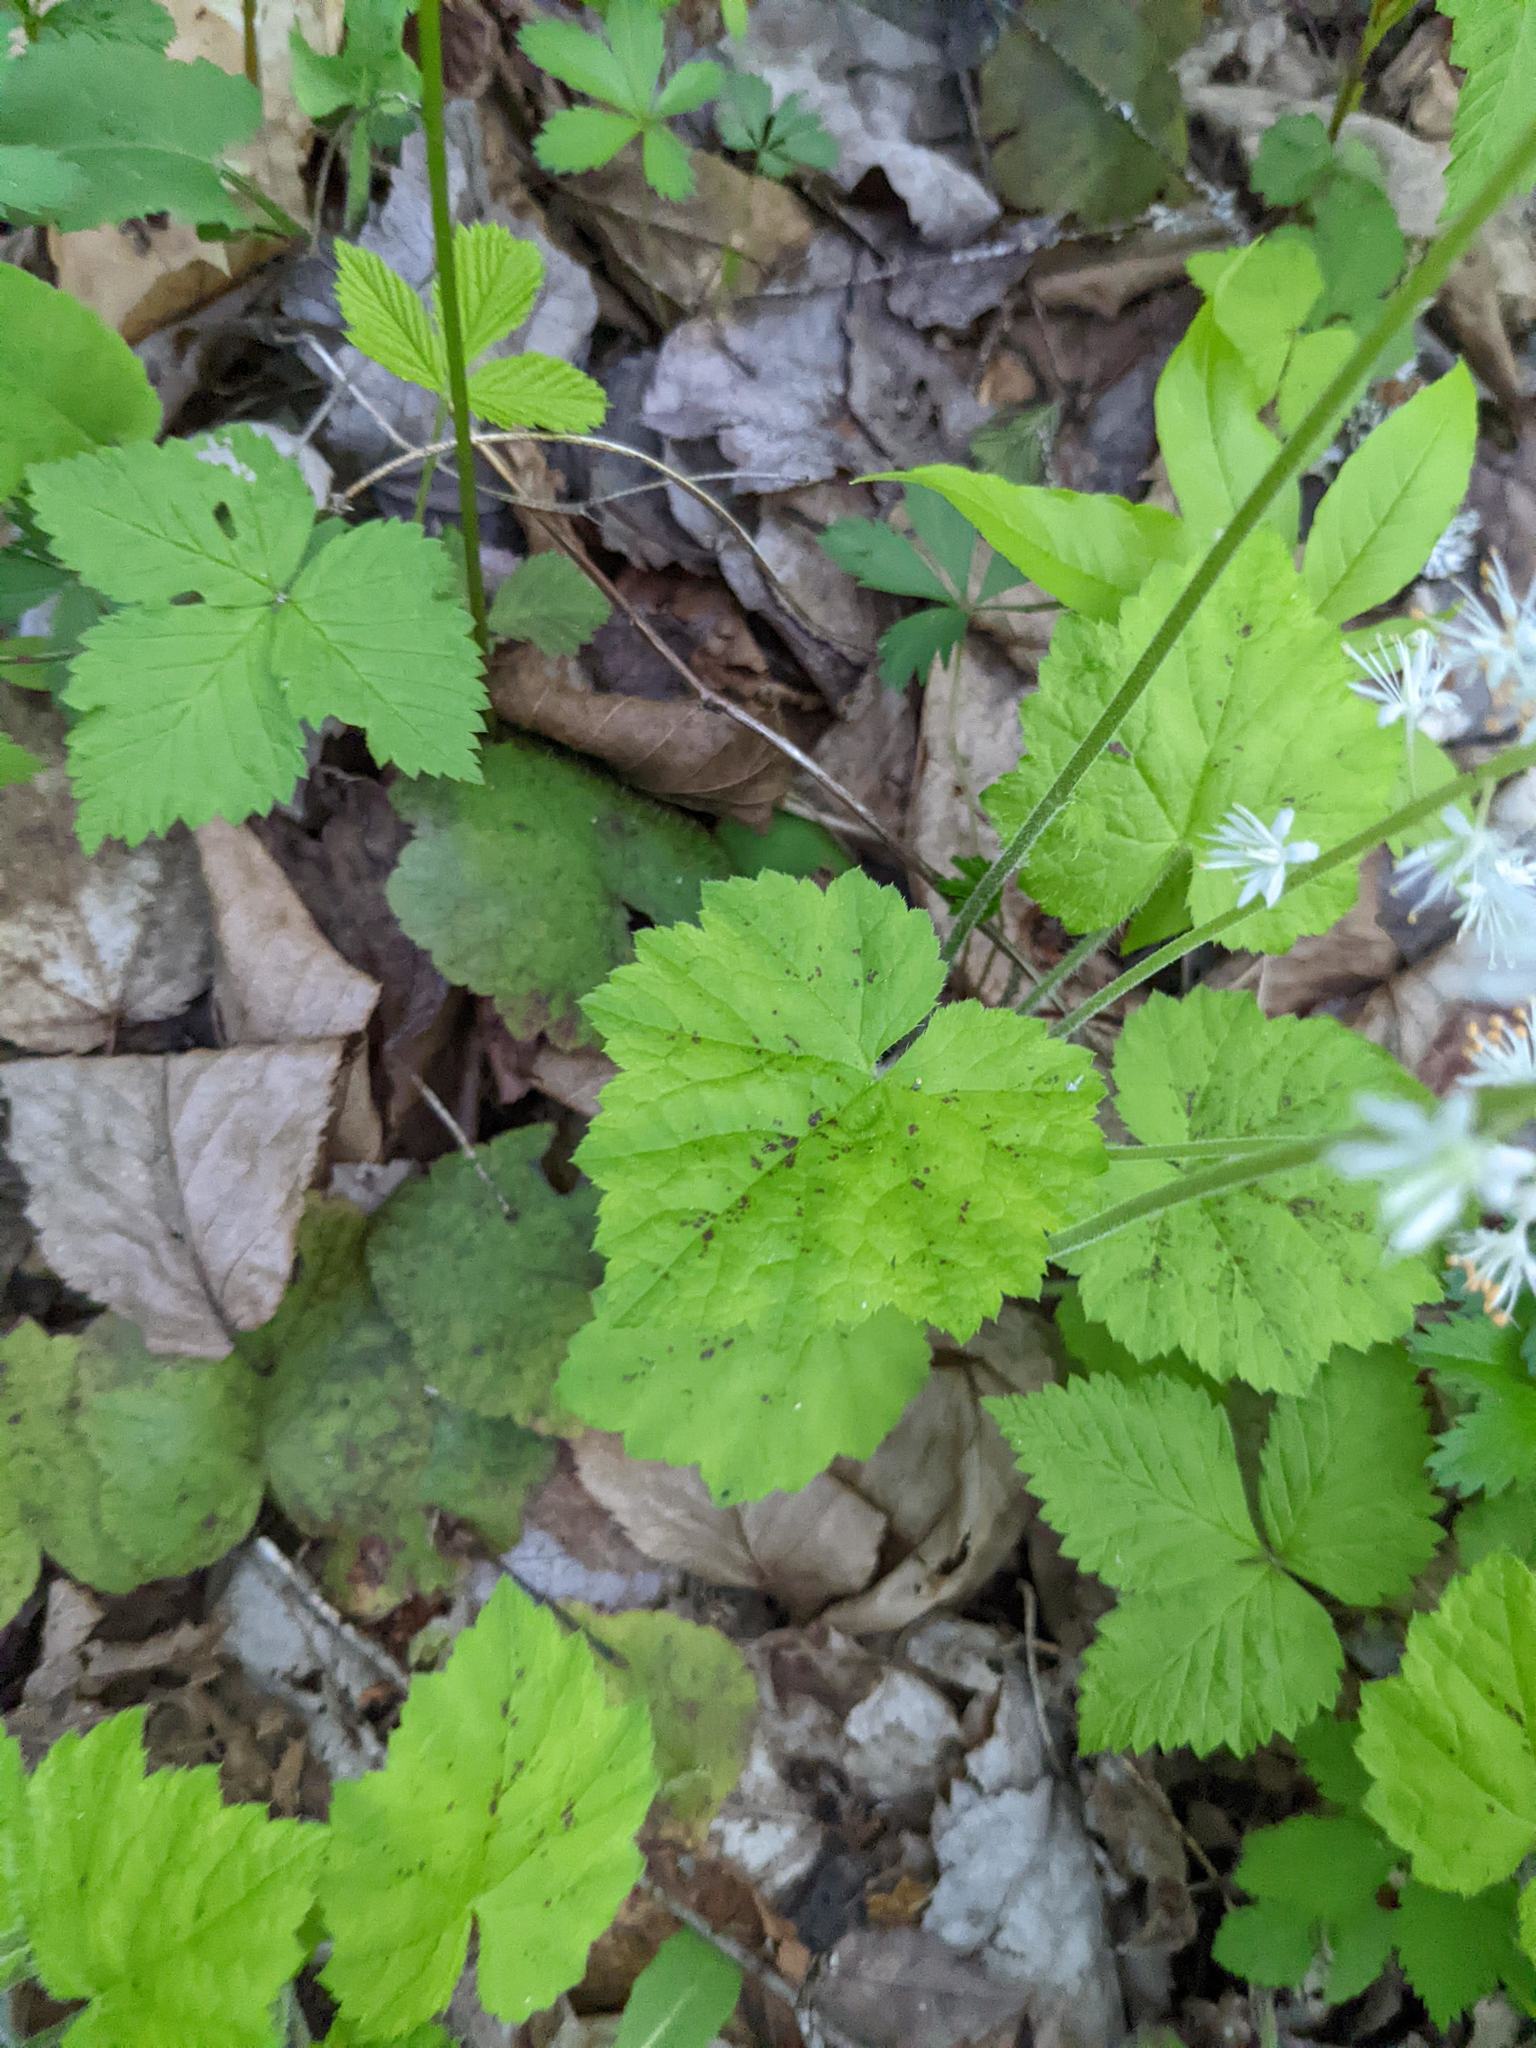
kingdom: Plantae
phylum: Tracheophyta
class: Magnoliopsida
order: Saxifragales
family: Saxifragaceae
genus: Tiarella
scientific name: Tiarella stolonifera
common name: Stoloniferous foamflower
